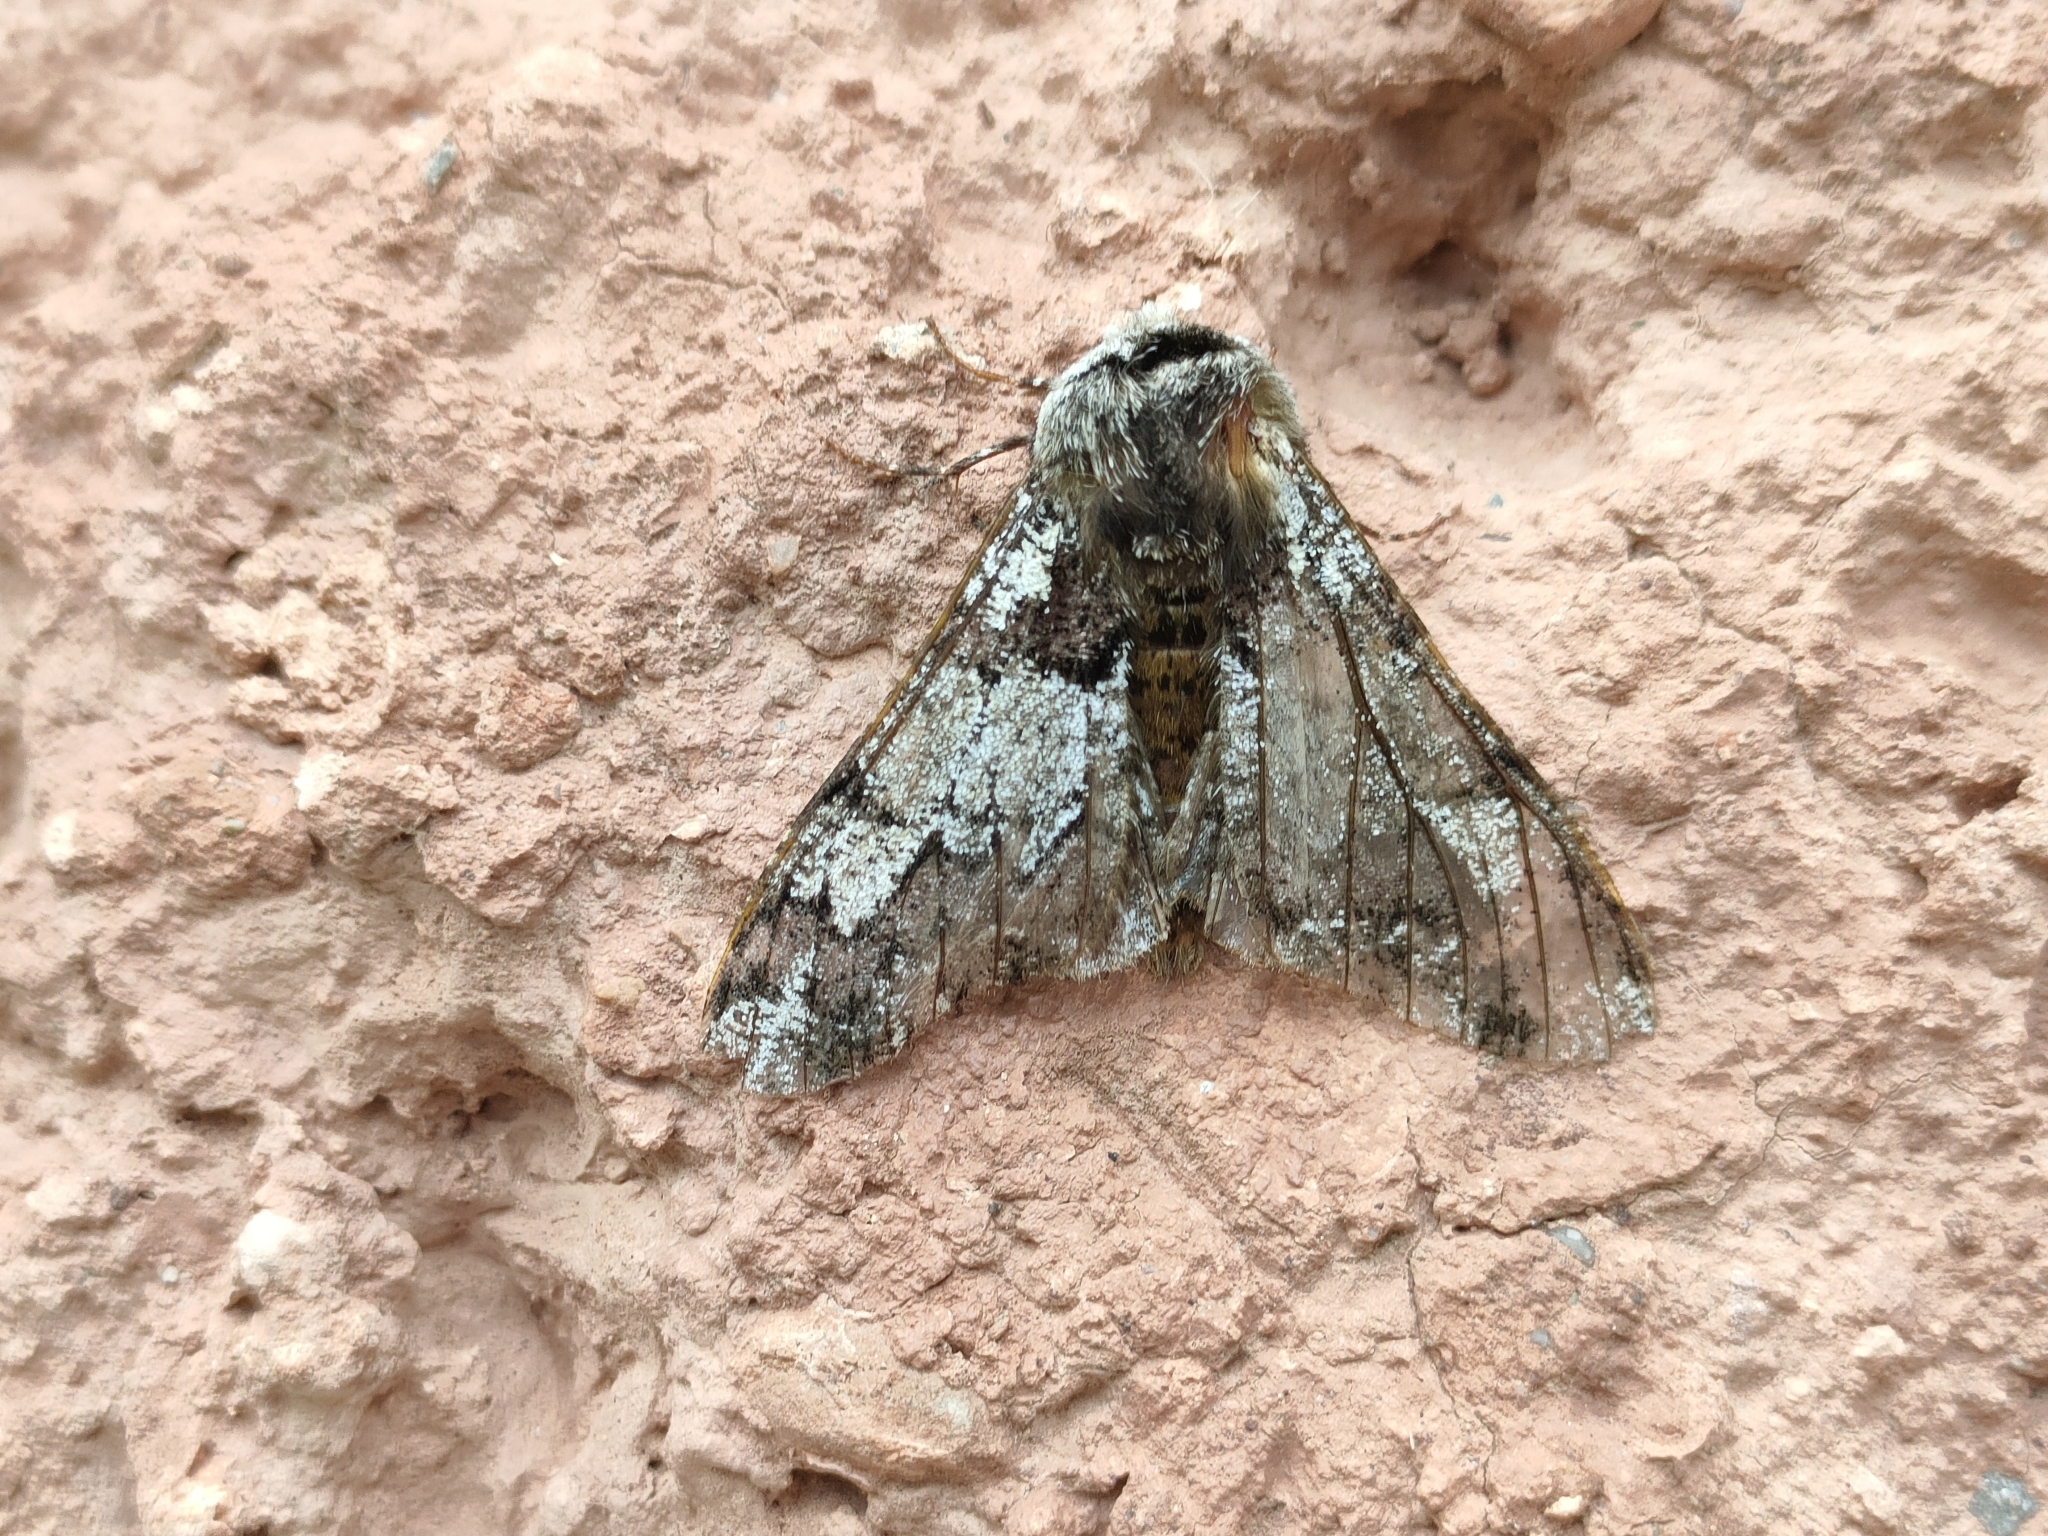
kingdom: Animalia
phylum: Arthropoda
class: Insecta
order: Lepidoptera
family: Geometridae
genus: Biston
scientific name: Biston strataria
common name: Oak beauty
